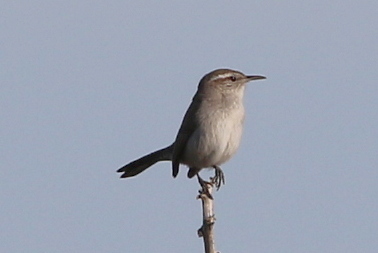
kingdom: Animalia
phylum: Chordata
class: Aves
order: Passeriformes
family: Troglodytidae
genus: Thryomanes
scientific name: Thryomanes bewickii
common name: Bewick's wren
